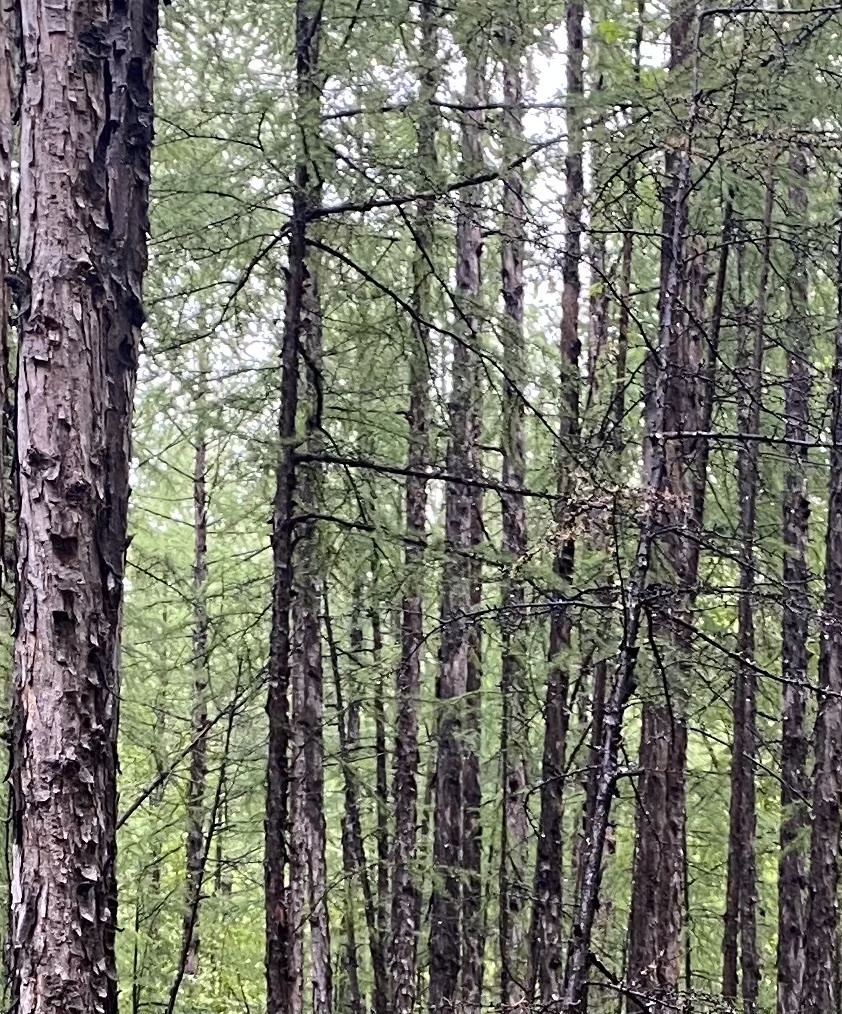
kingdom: Plantae
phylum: Tracheophyta
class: Pinopsida
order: Pinales
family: Pinaceae
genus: Larix
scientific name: Larix gmelinii
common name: Dahurian larch
